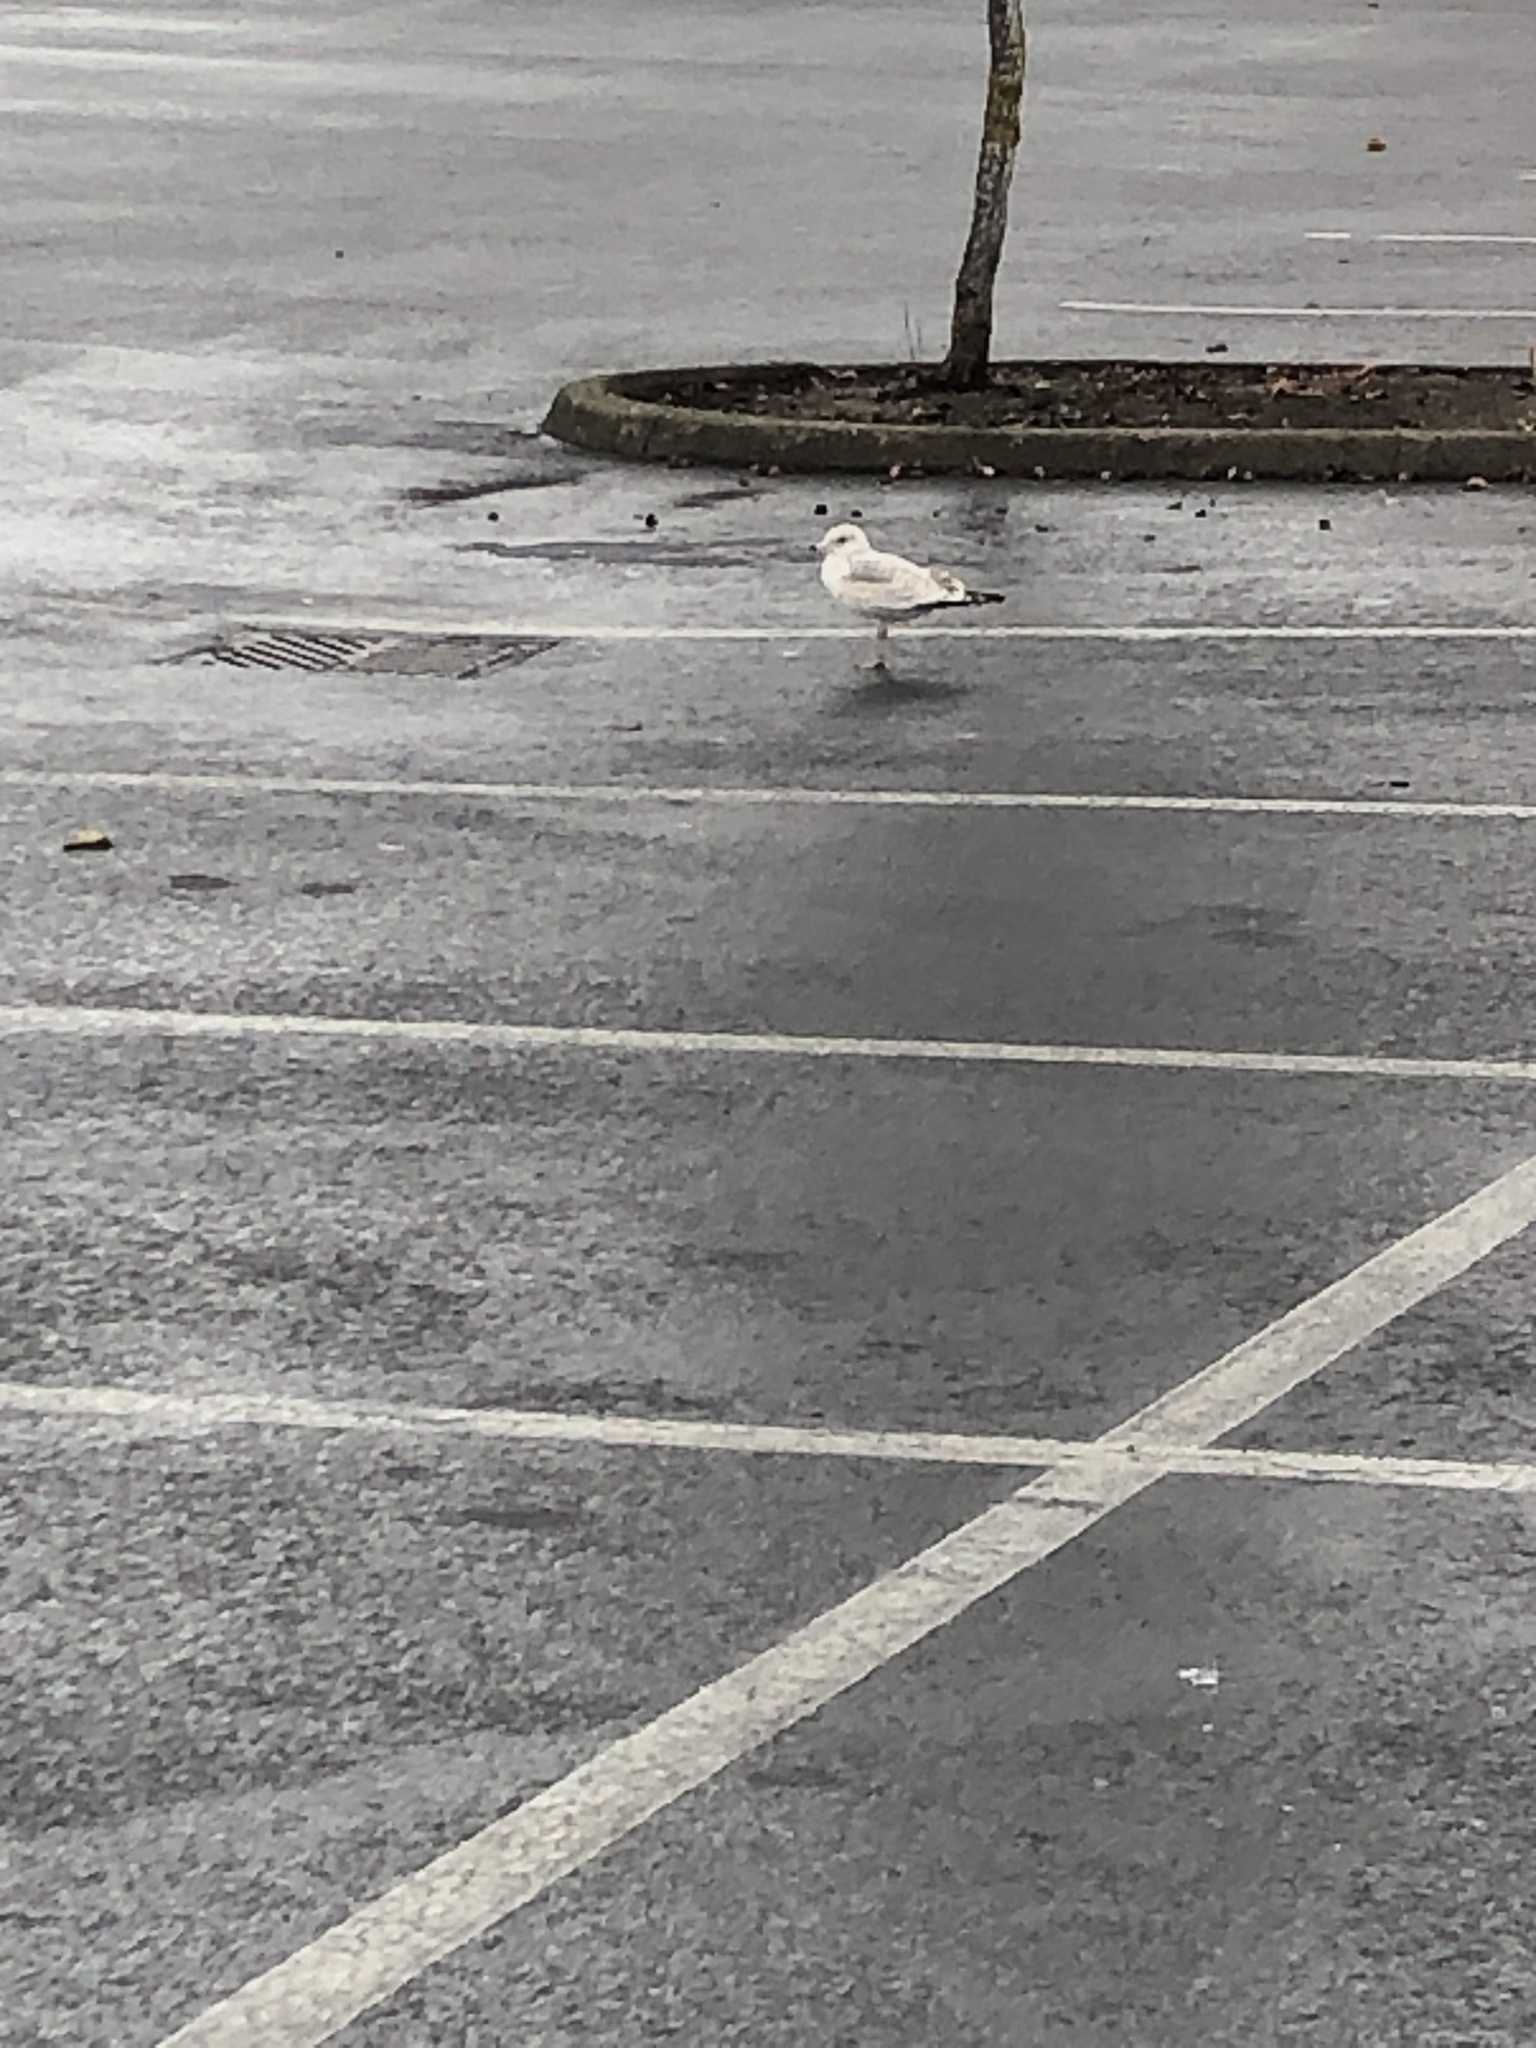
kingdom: Animalia
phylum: Chordata
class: Aves
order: Charadriiformes
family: Laridae
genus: Larus
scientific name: Larus delawarensis
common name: Ring-billed gull
